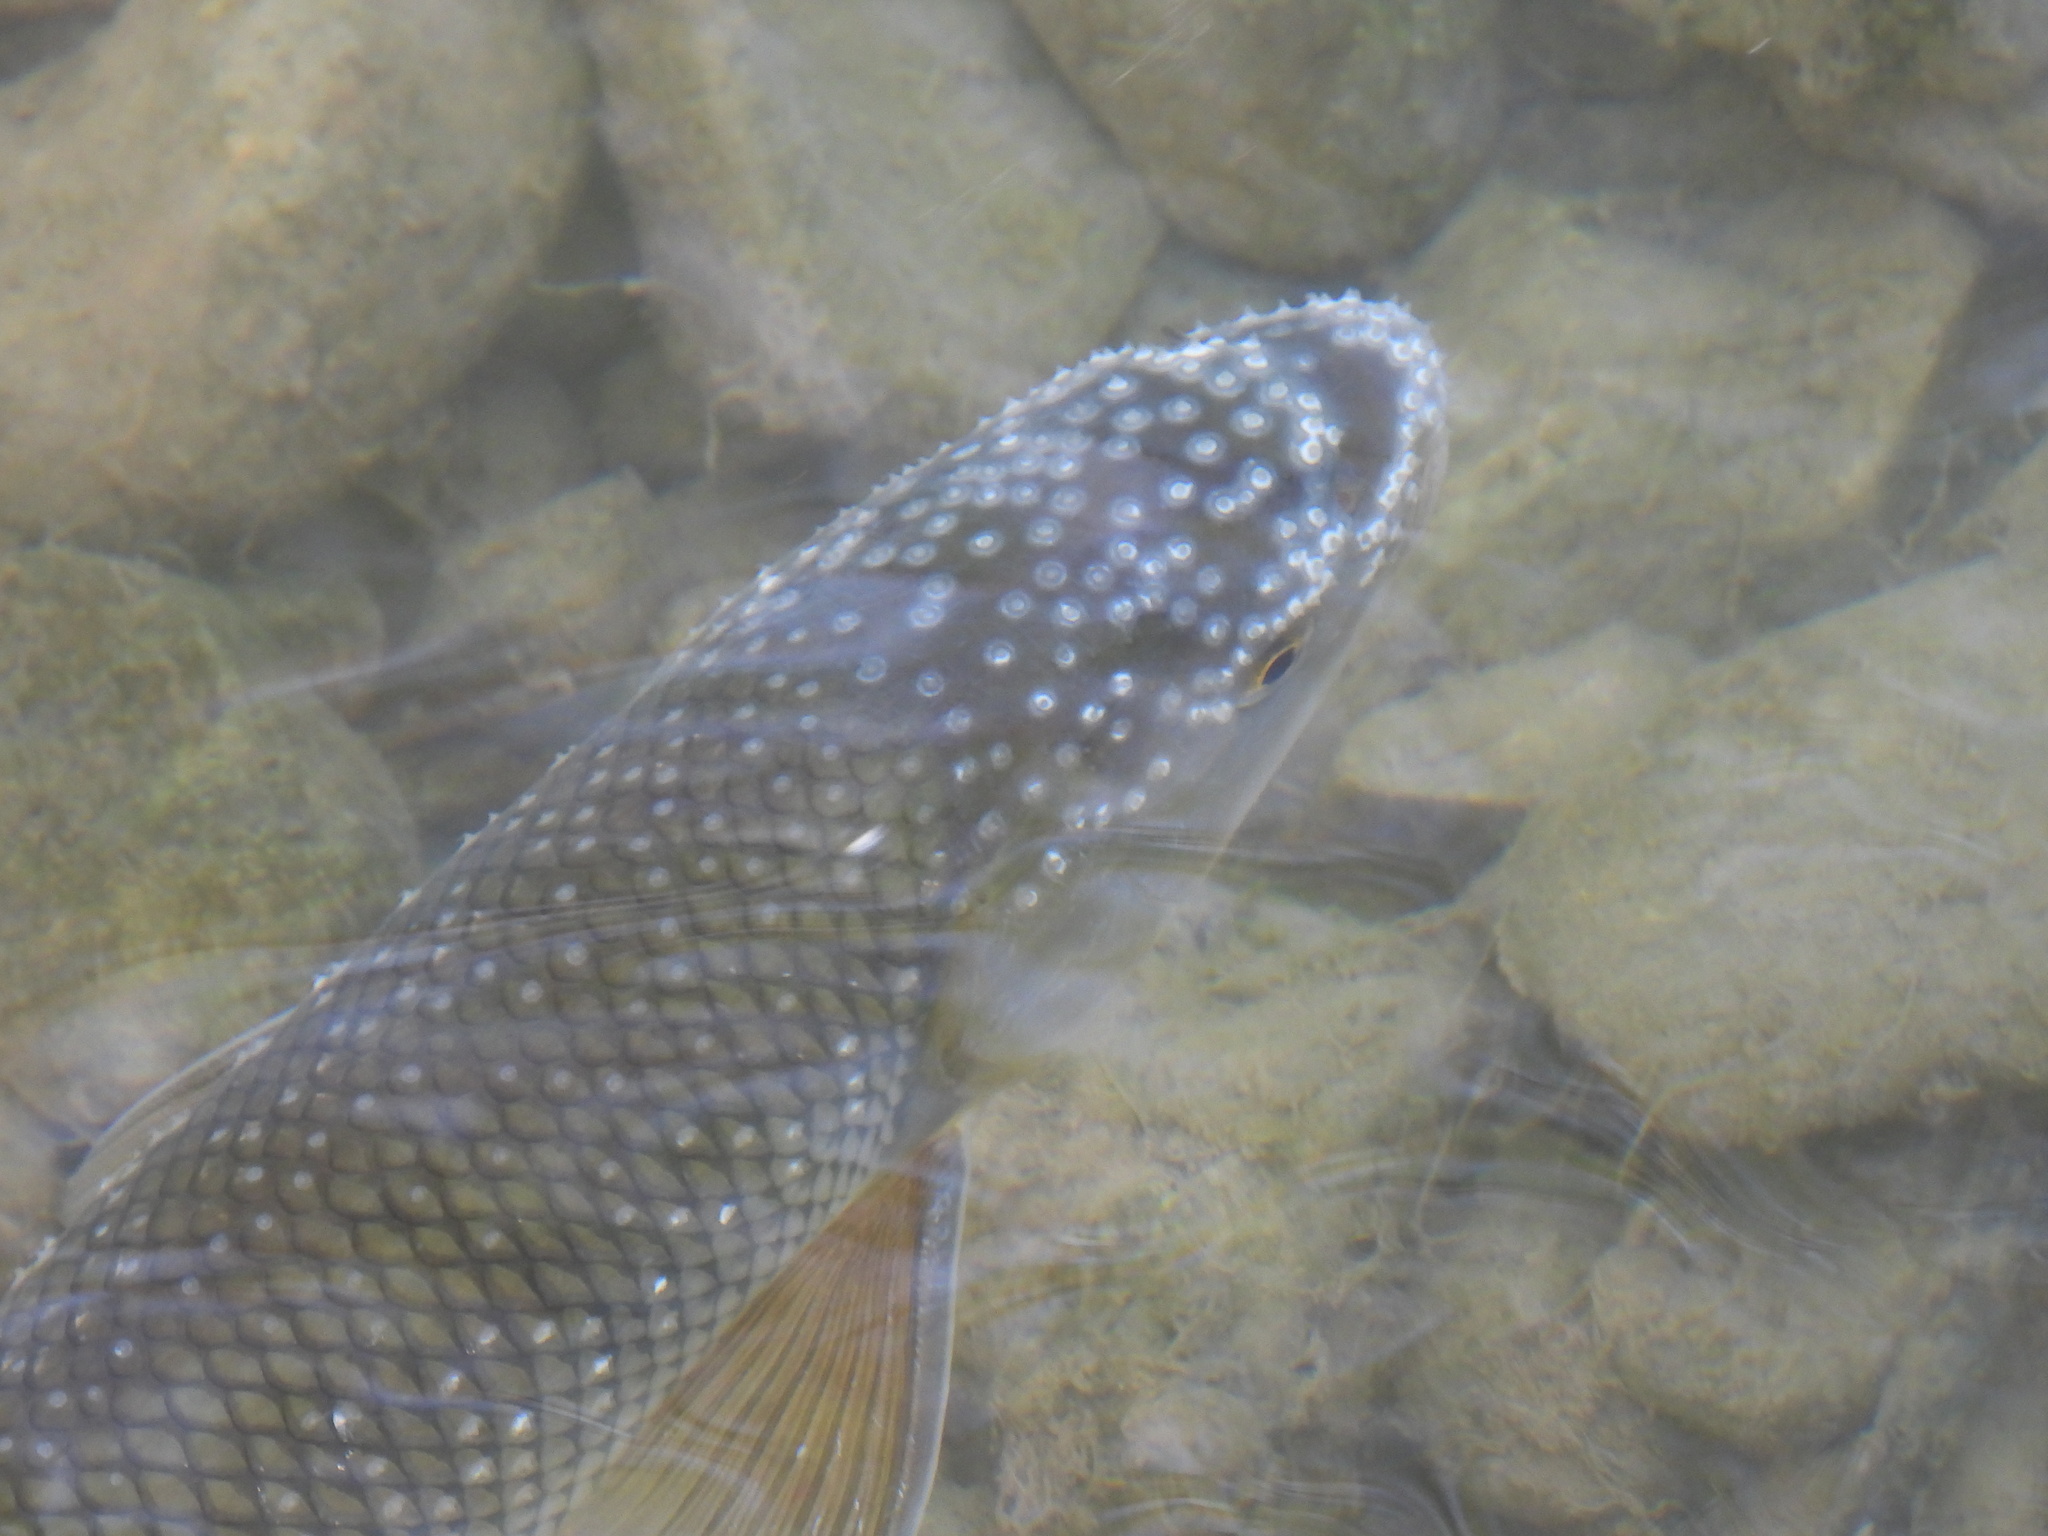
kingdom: Animalia
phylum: Chordata
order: Cypriniformes
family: Cyprinidae
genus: Rutilus
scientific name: Rutilus meidingeri
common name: Perlfisch
